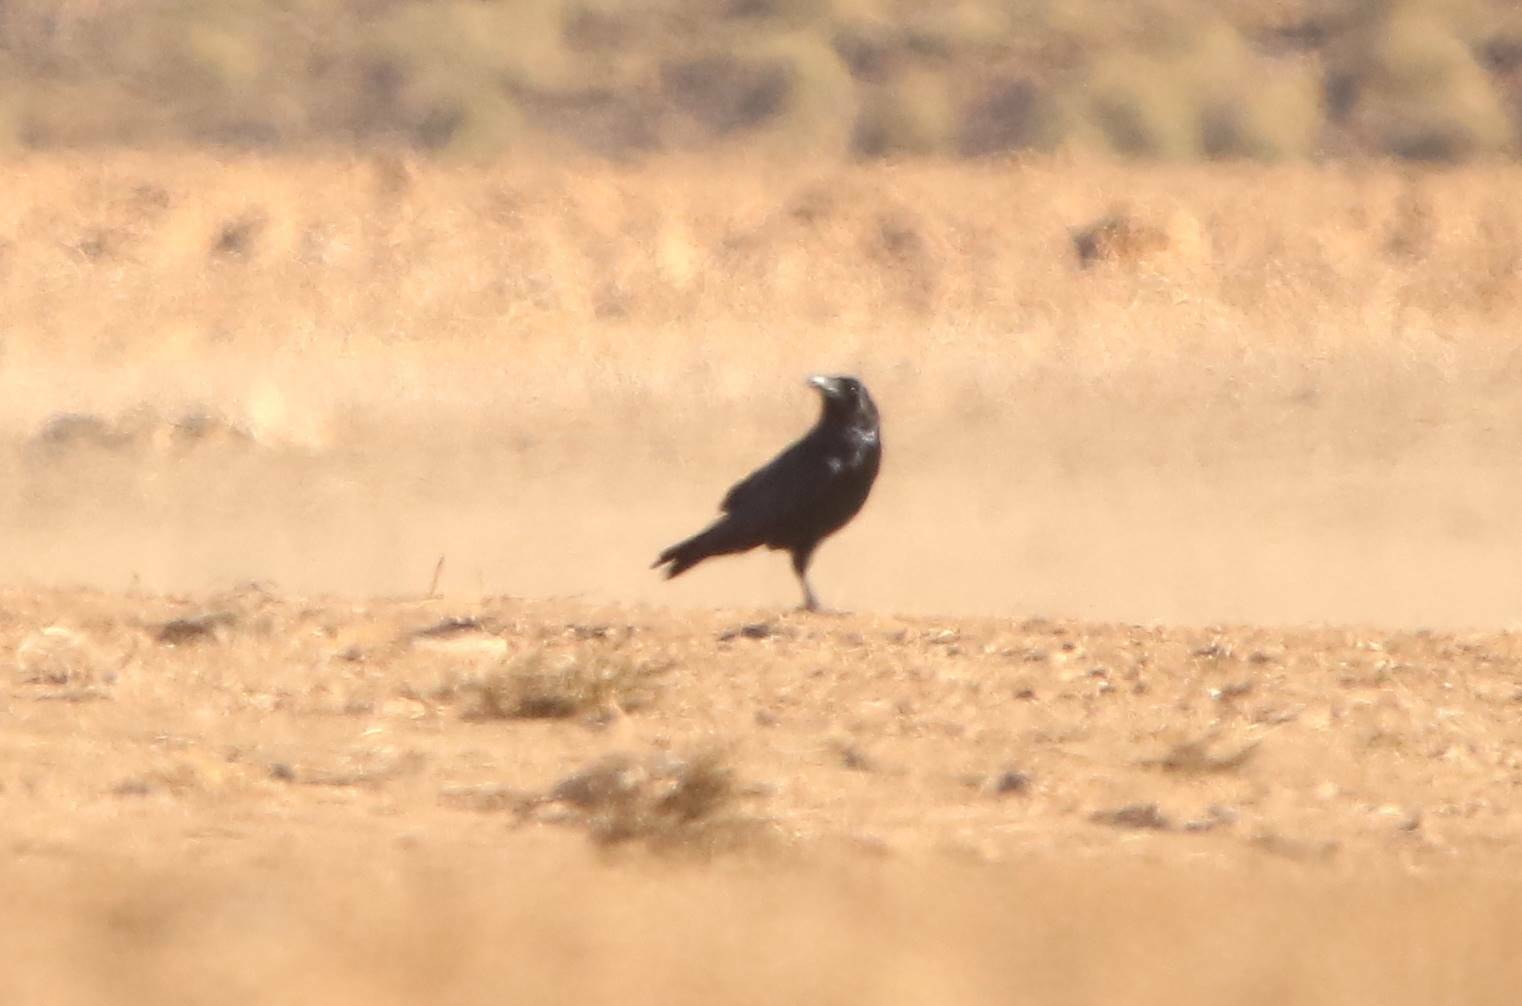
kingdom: Animalia
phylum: Chordata
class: Aves
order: Passeriformes
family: Corvidae
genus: Corvus
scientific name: Corvus corax
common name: Common raven
